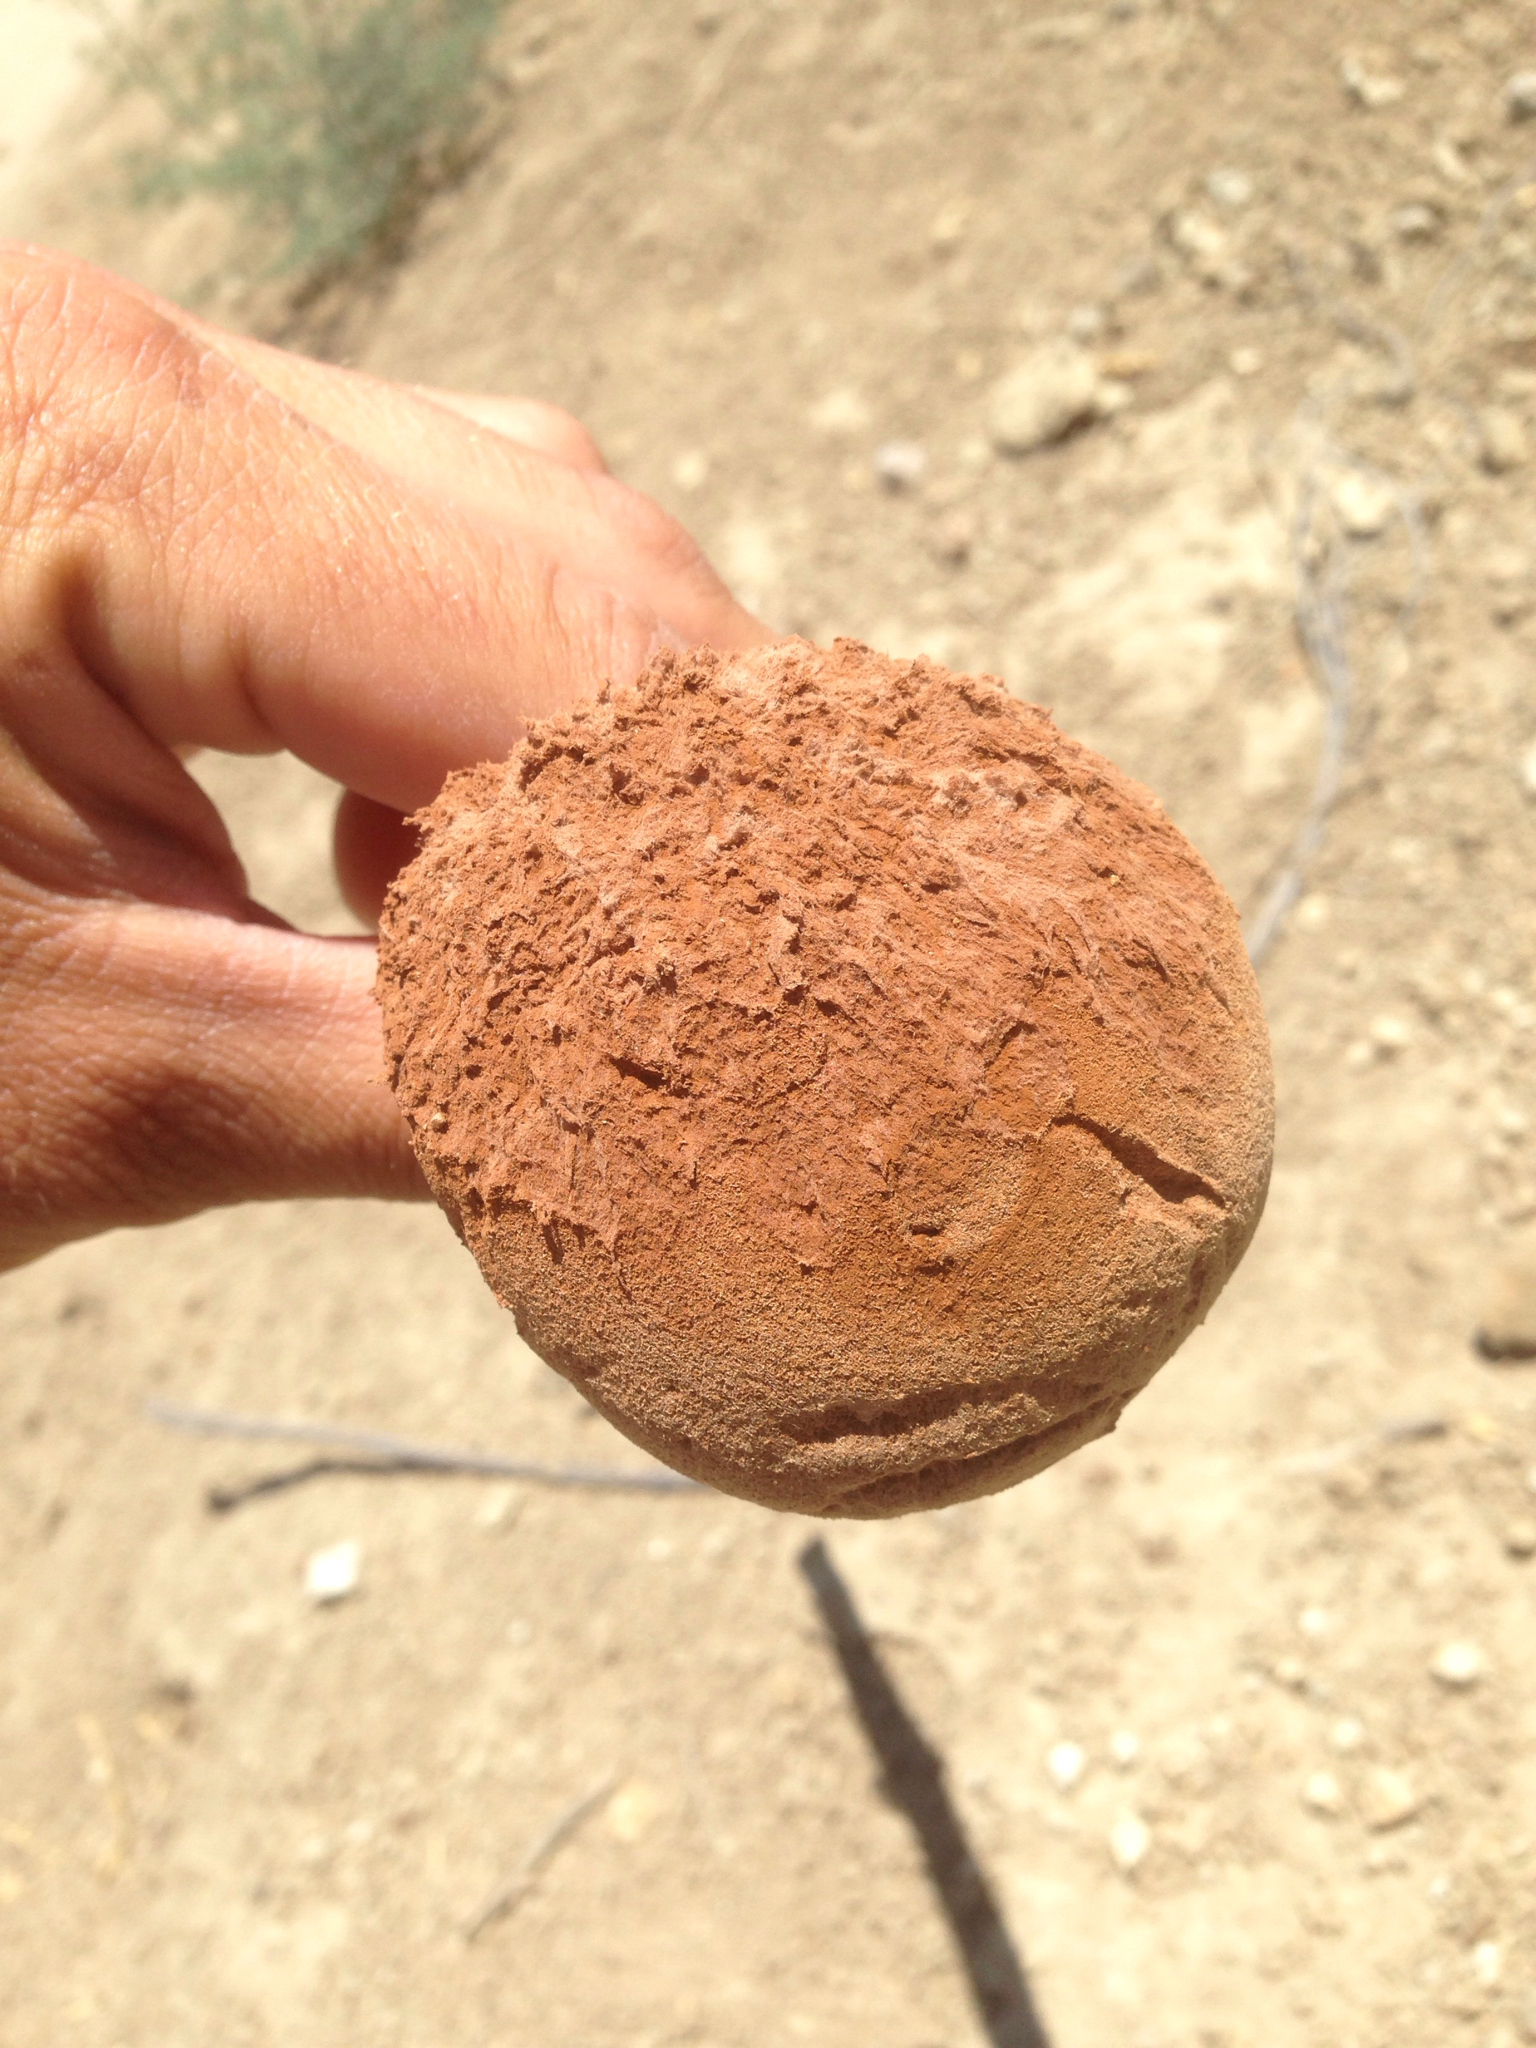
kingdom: Fungi
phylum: Basidiomycota
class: Agaricomycetes
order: Agaricales
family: Agaricaceae
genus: Battarrea
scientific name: Battarrea phalloides
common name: Sandy stiltball
